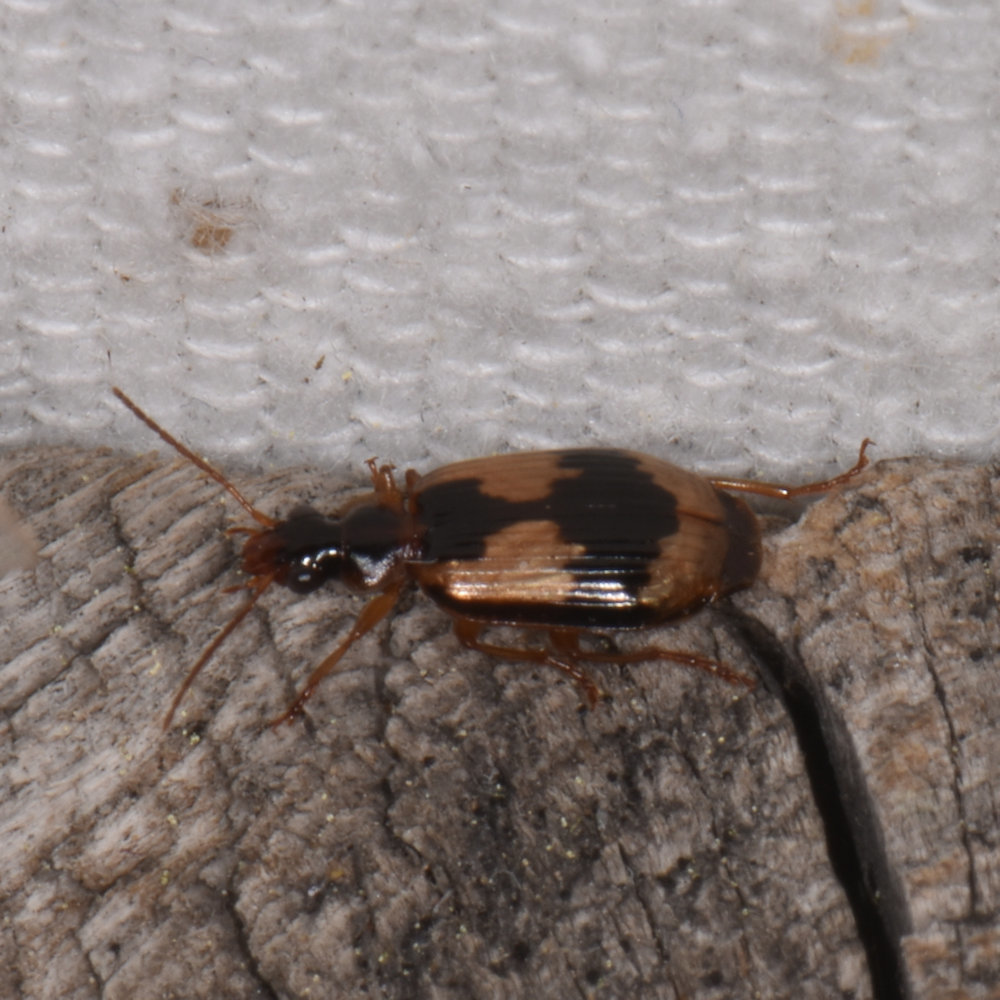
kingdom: Animalia
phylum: Arthropoda
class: Insecta
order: Coleoptera
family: Carabidae
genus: Lebia
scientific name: Lebia fuscata
